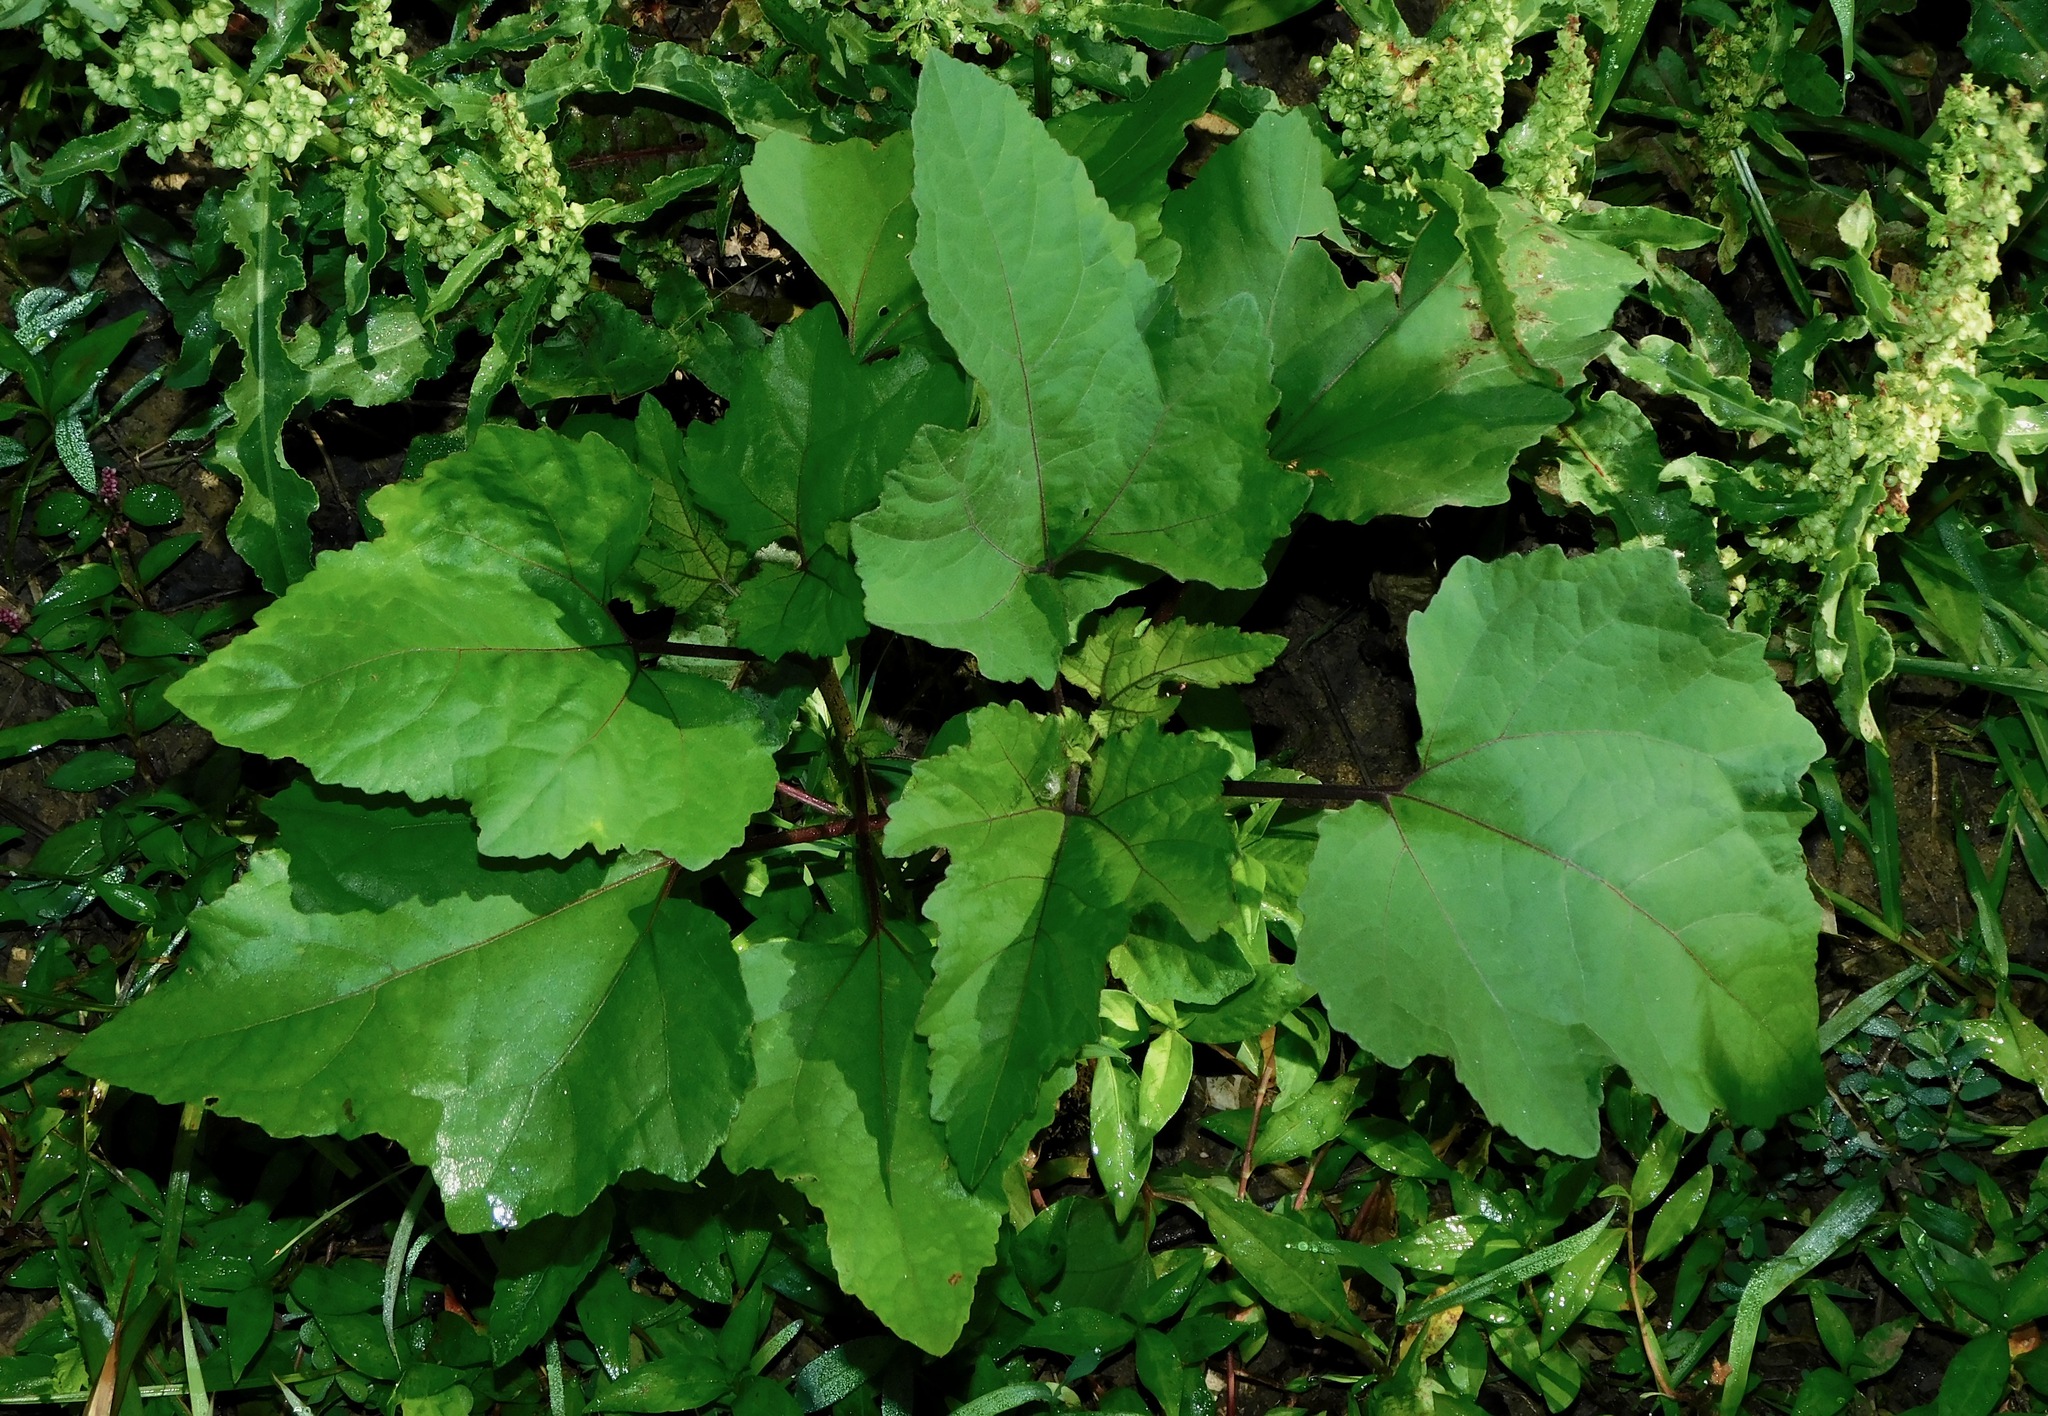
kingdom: Plantae
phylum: Tracheophyta
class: Magnoliopsida
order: Asterales
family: Asteraceae
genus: Xanthium
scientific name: Xanthium strumarium
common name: Rough cocklebur
